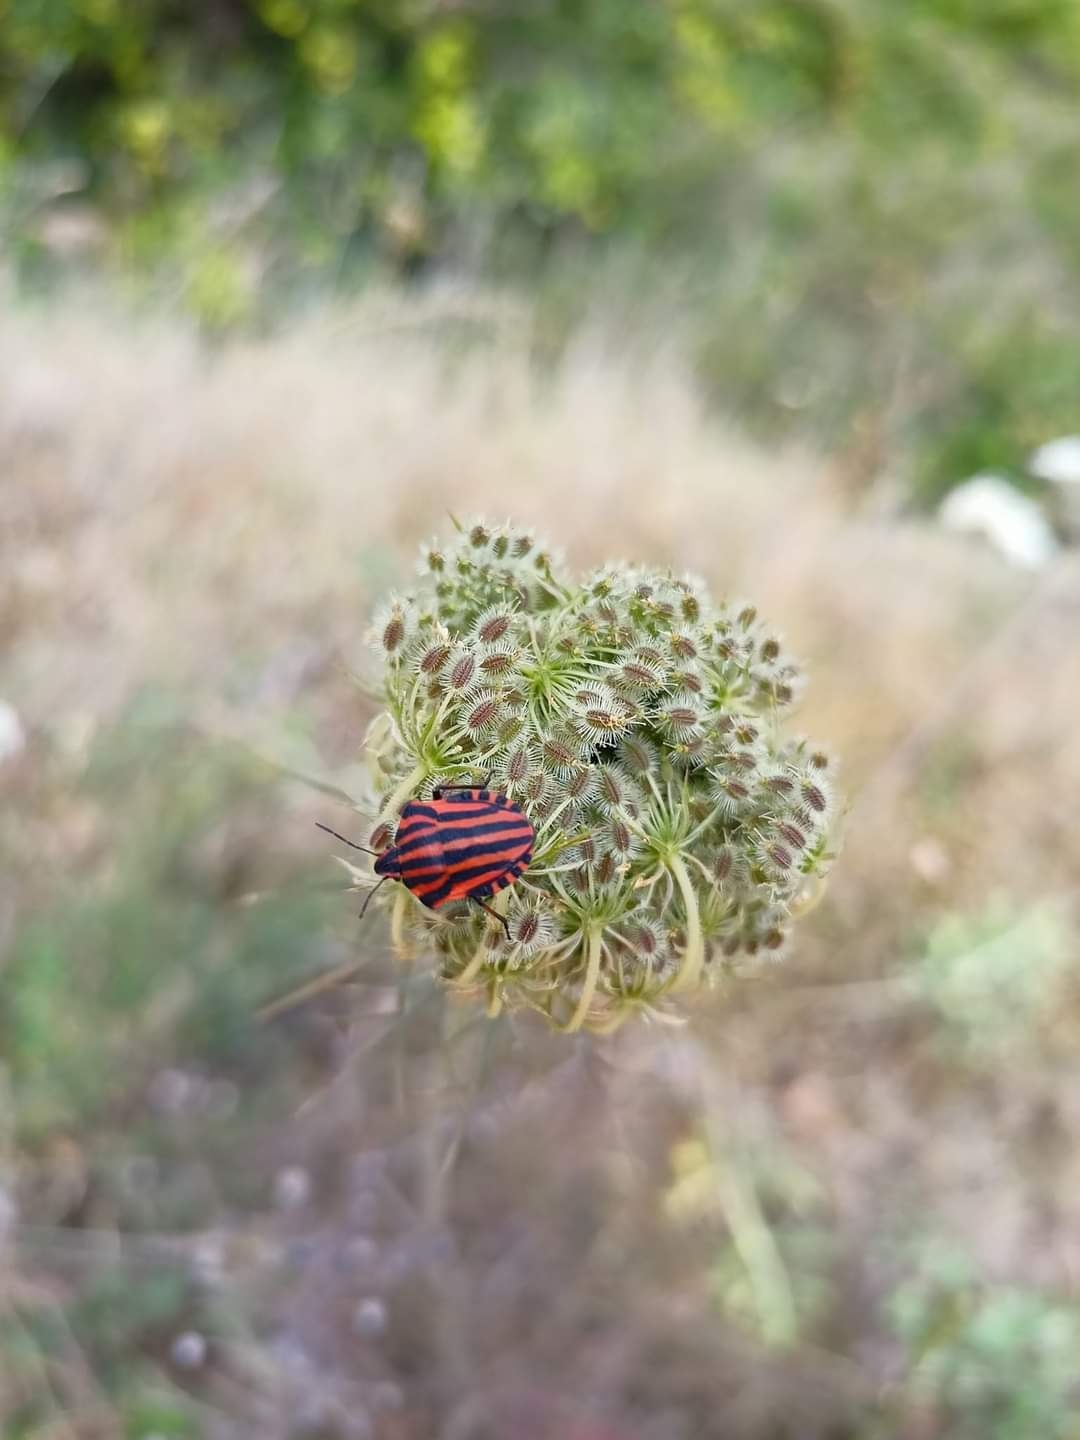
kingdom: Animalia
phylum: Arthropoda
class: Insecta
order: Hemiptera
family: Pentatomidae
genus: Graphosoma
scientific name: Graphosoma italicum
